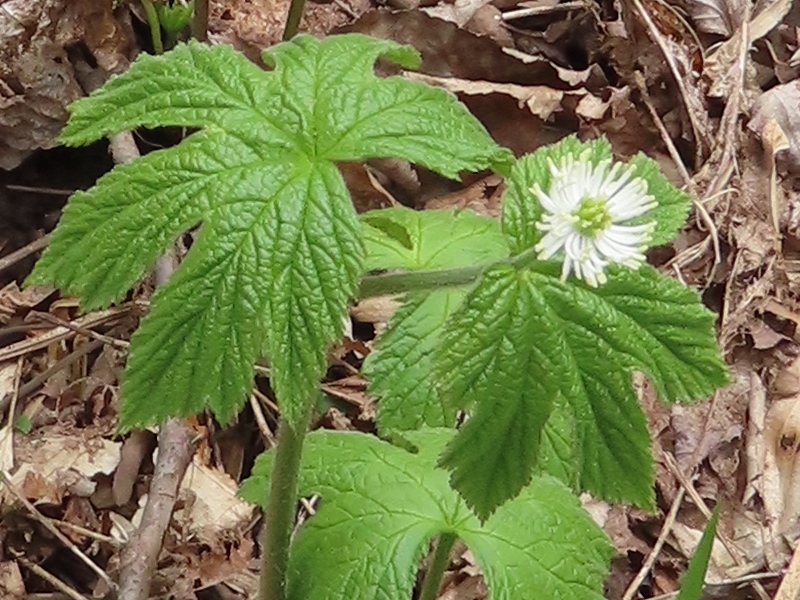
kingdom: Plantae
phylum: Tracheophyta
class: Magnoliopsida
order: Ranunculales
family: Ranunculaceae
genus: Hydrastis
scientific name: Hydrastis canadensis
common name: Goldenseal
